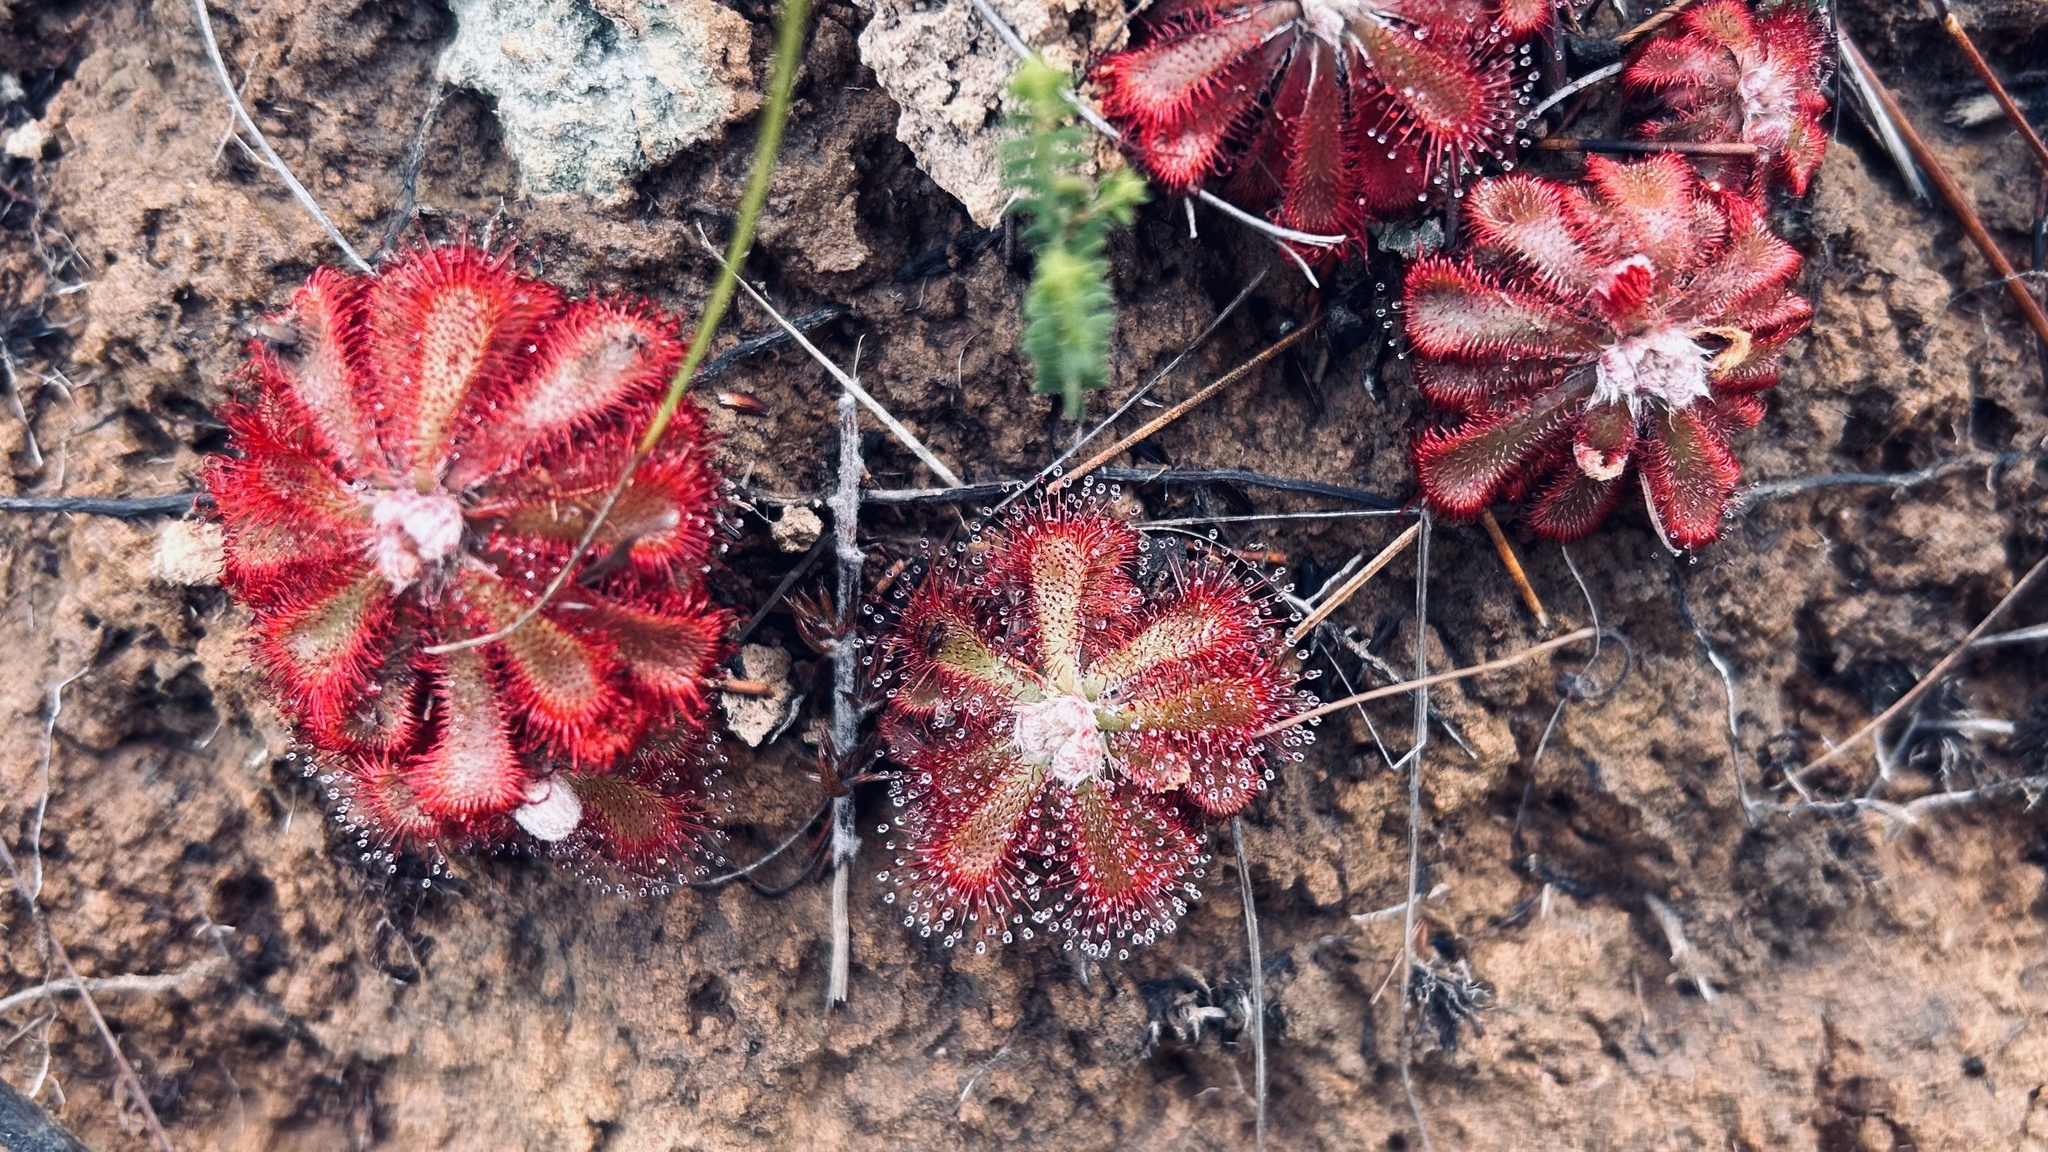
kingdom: Plantae
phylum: Tracheophyta
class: Magnoliopsida
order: Caryophyllales
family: Droseraceae
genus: Drosera
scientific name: Drosera aliciae
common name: Alice sundew
